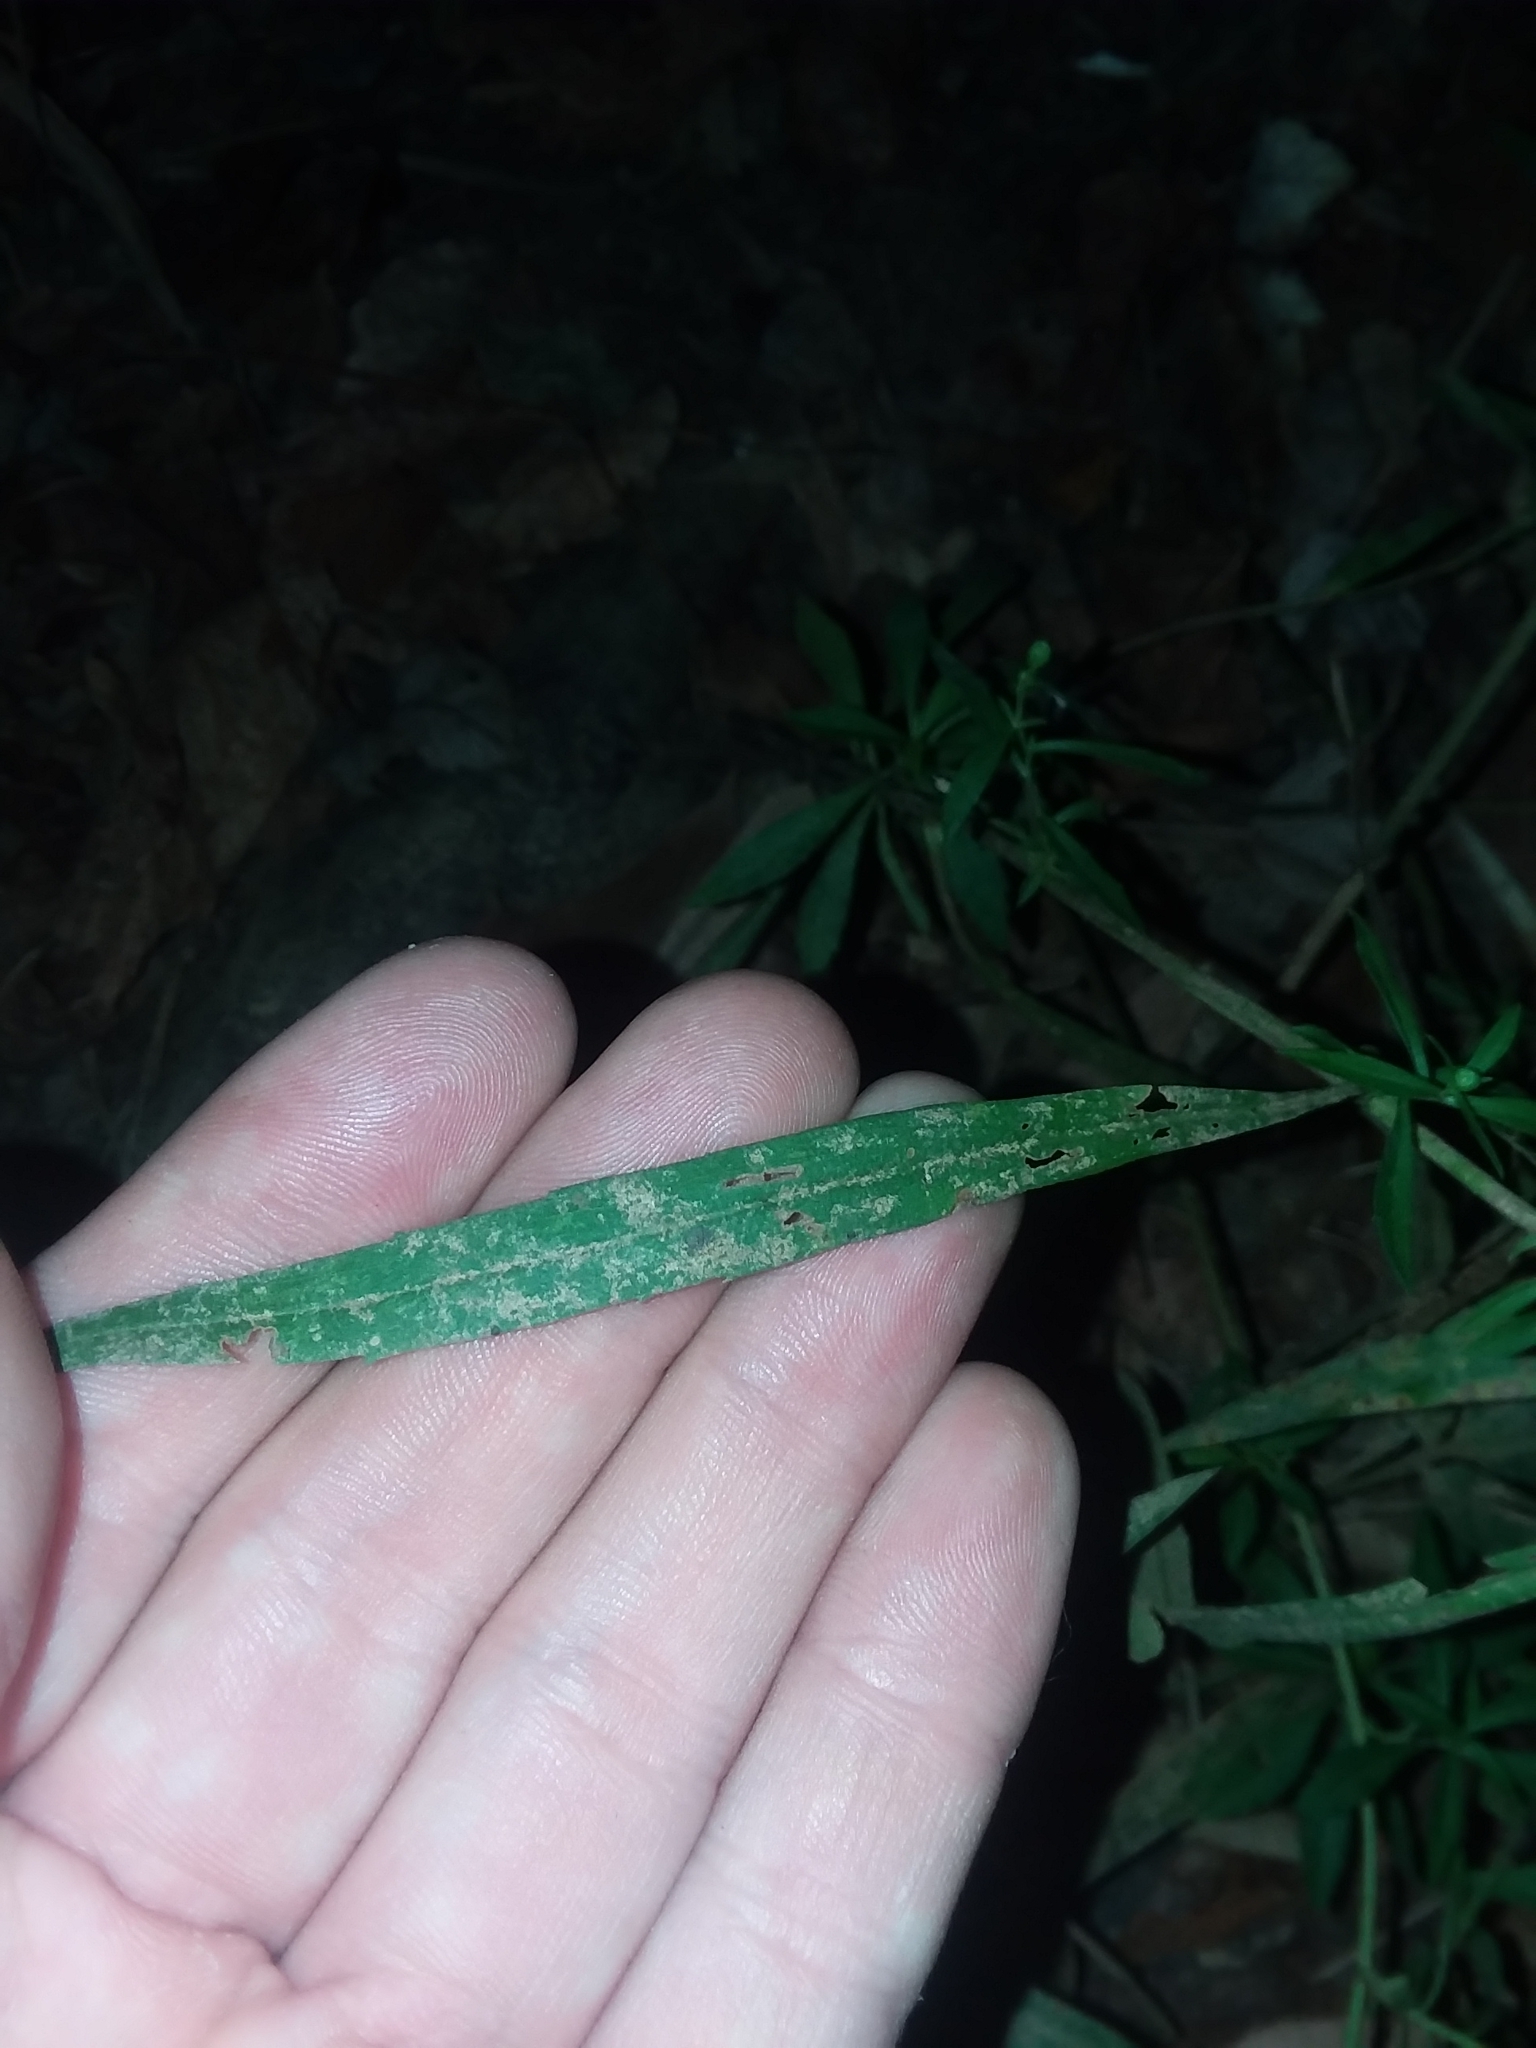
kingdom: Plantae
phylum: Tracheophyta
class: Magnoliopsida
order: Asterales
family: Asteraceae
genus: Symphyotrichum
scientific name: Symphyotrichum lanceolatum
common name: Panicled aster
